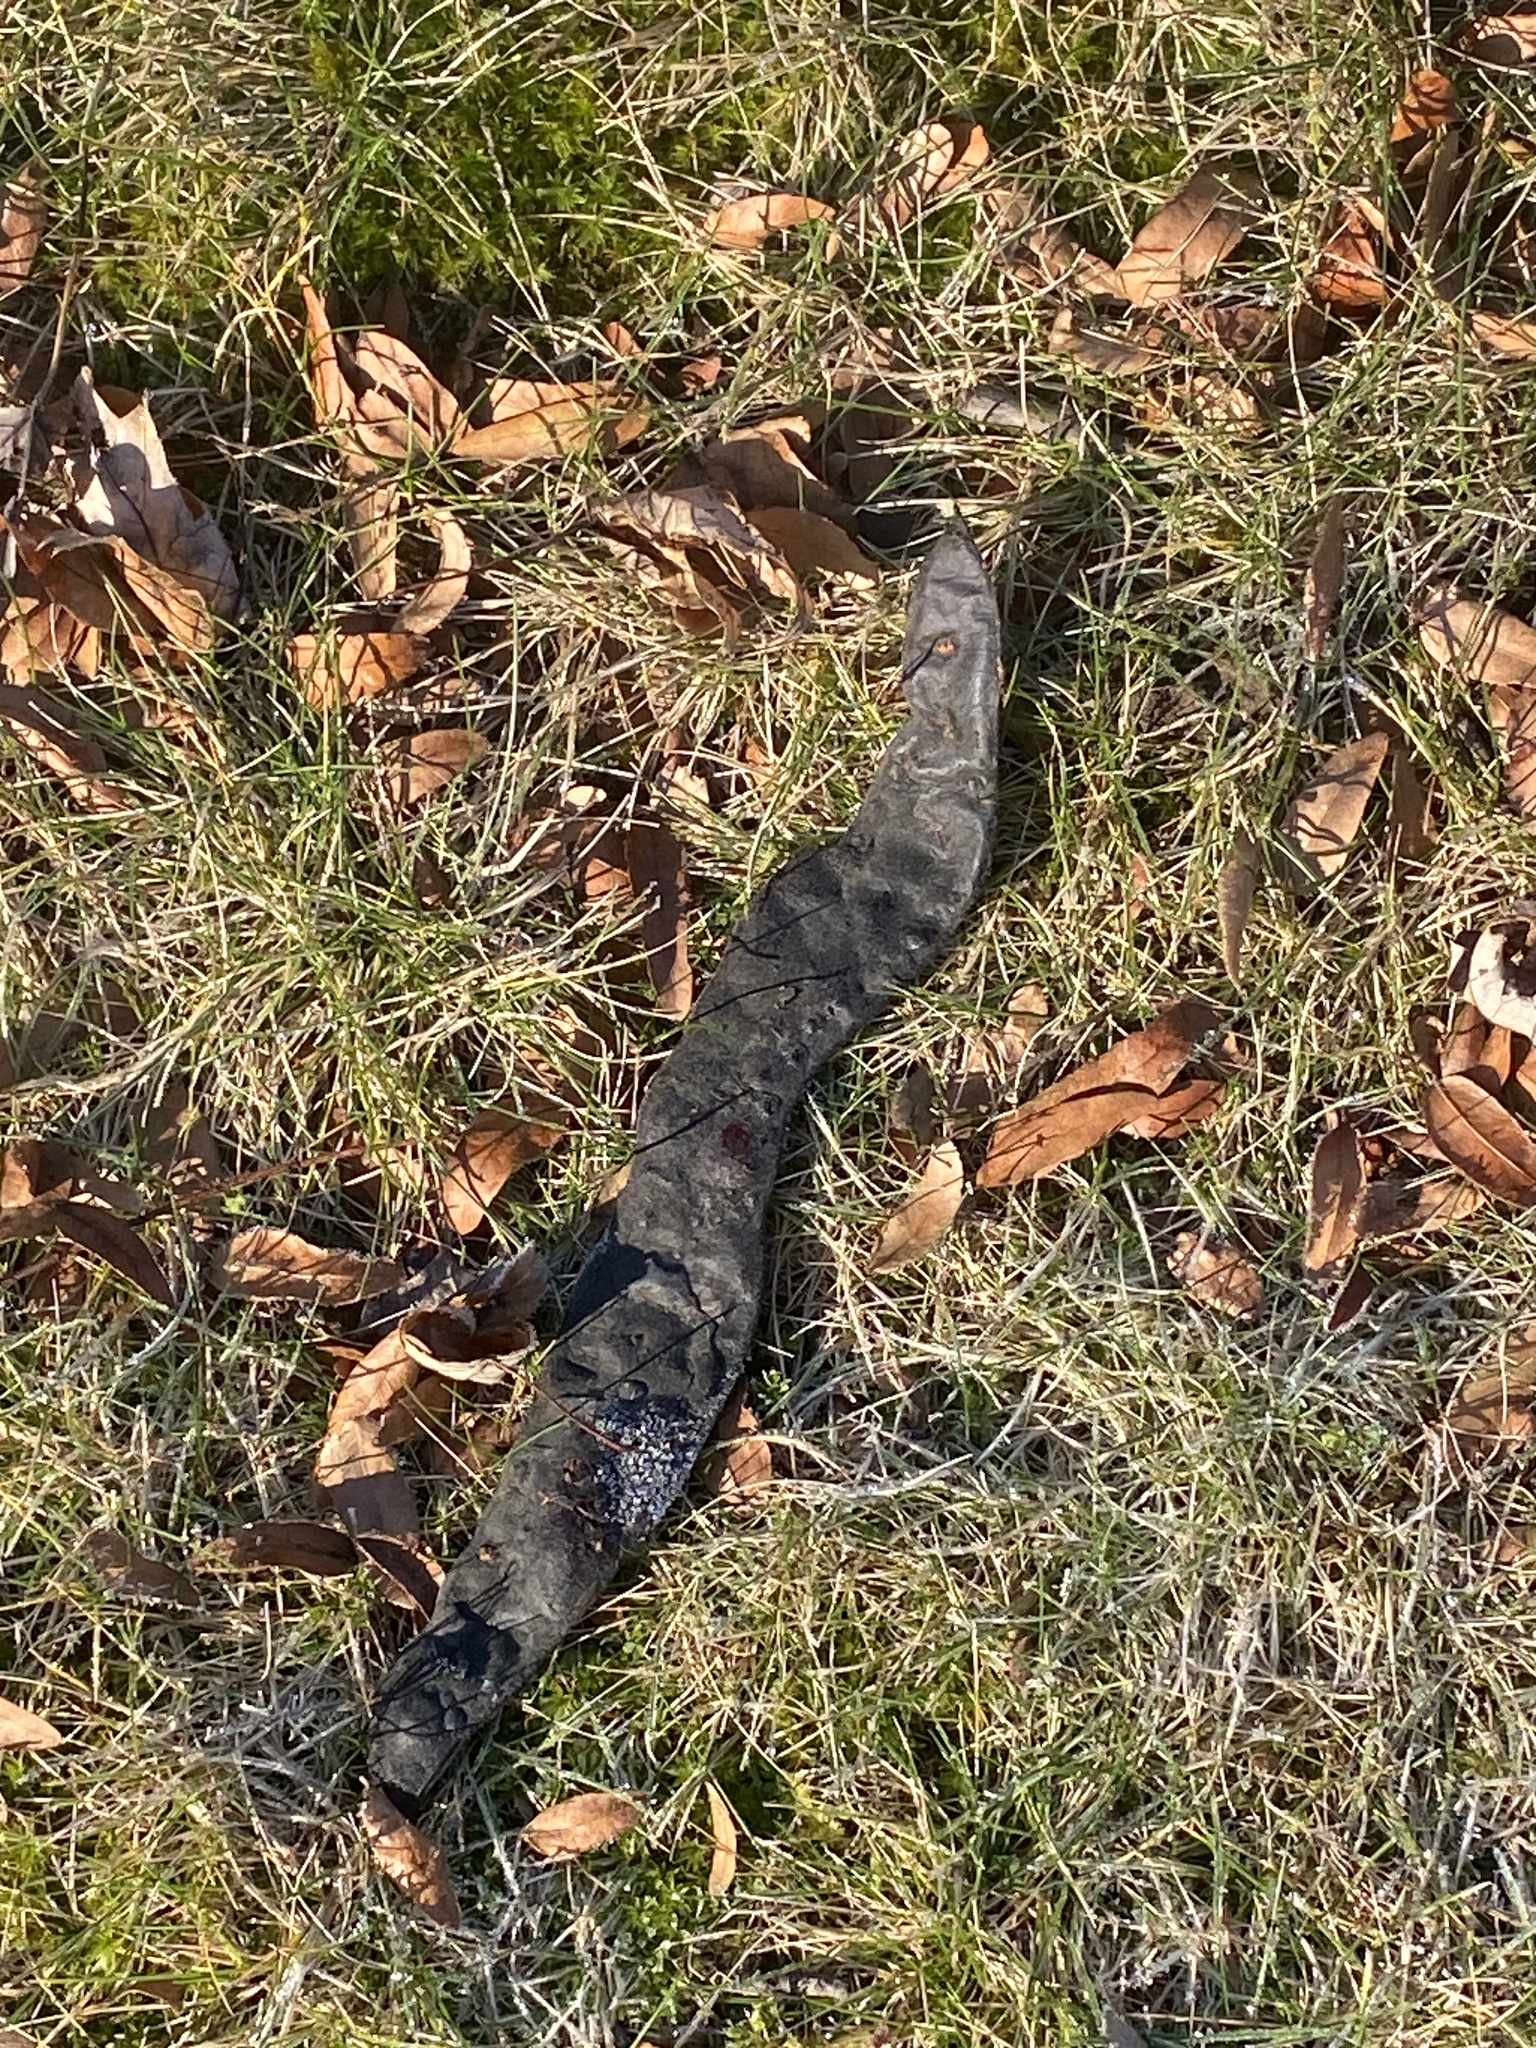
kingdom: Plantae
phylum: Tracheophyta
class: Magnoliopsida
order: Fabales
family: Fabaceae
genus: Gleditsia
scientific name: Gleditsia triacanthos
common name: Common honeylocust
